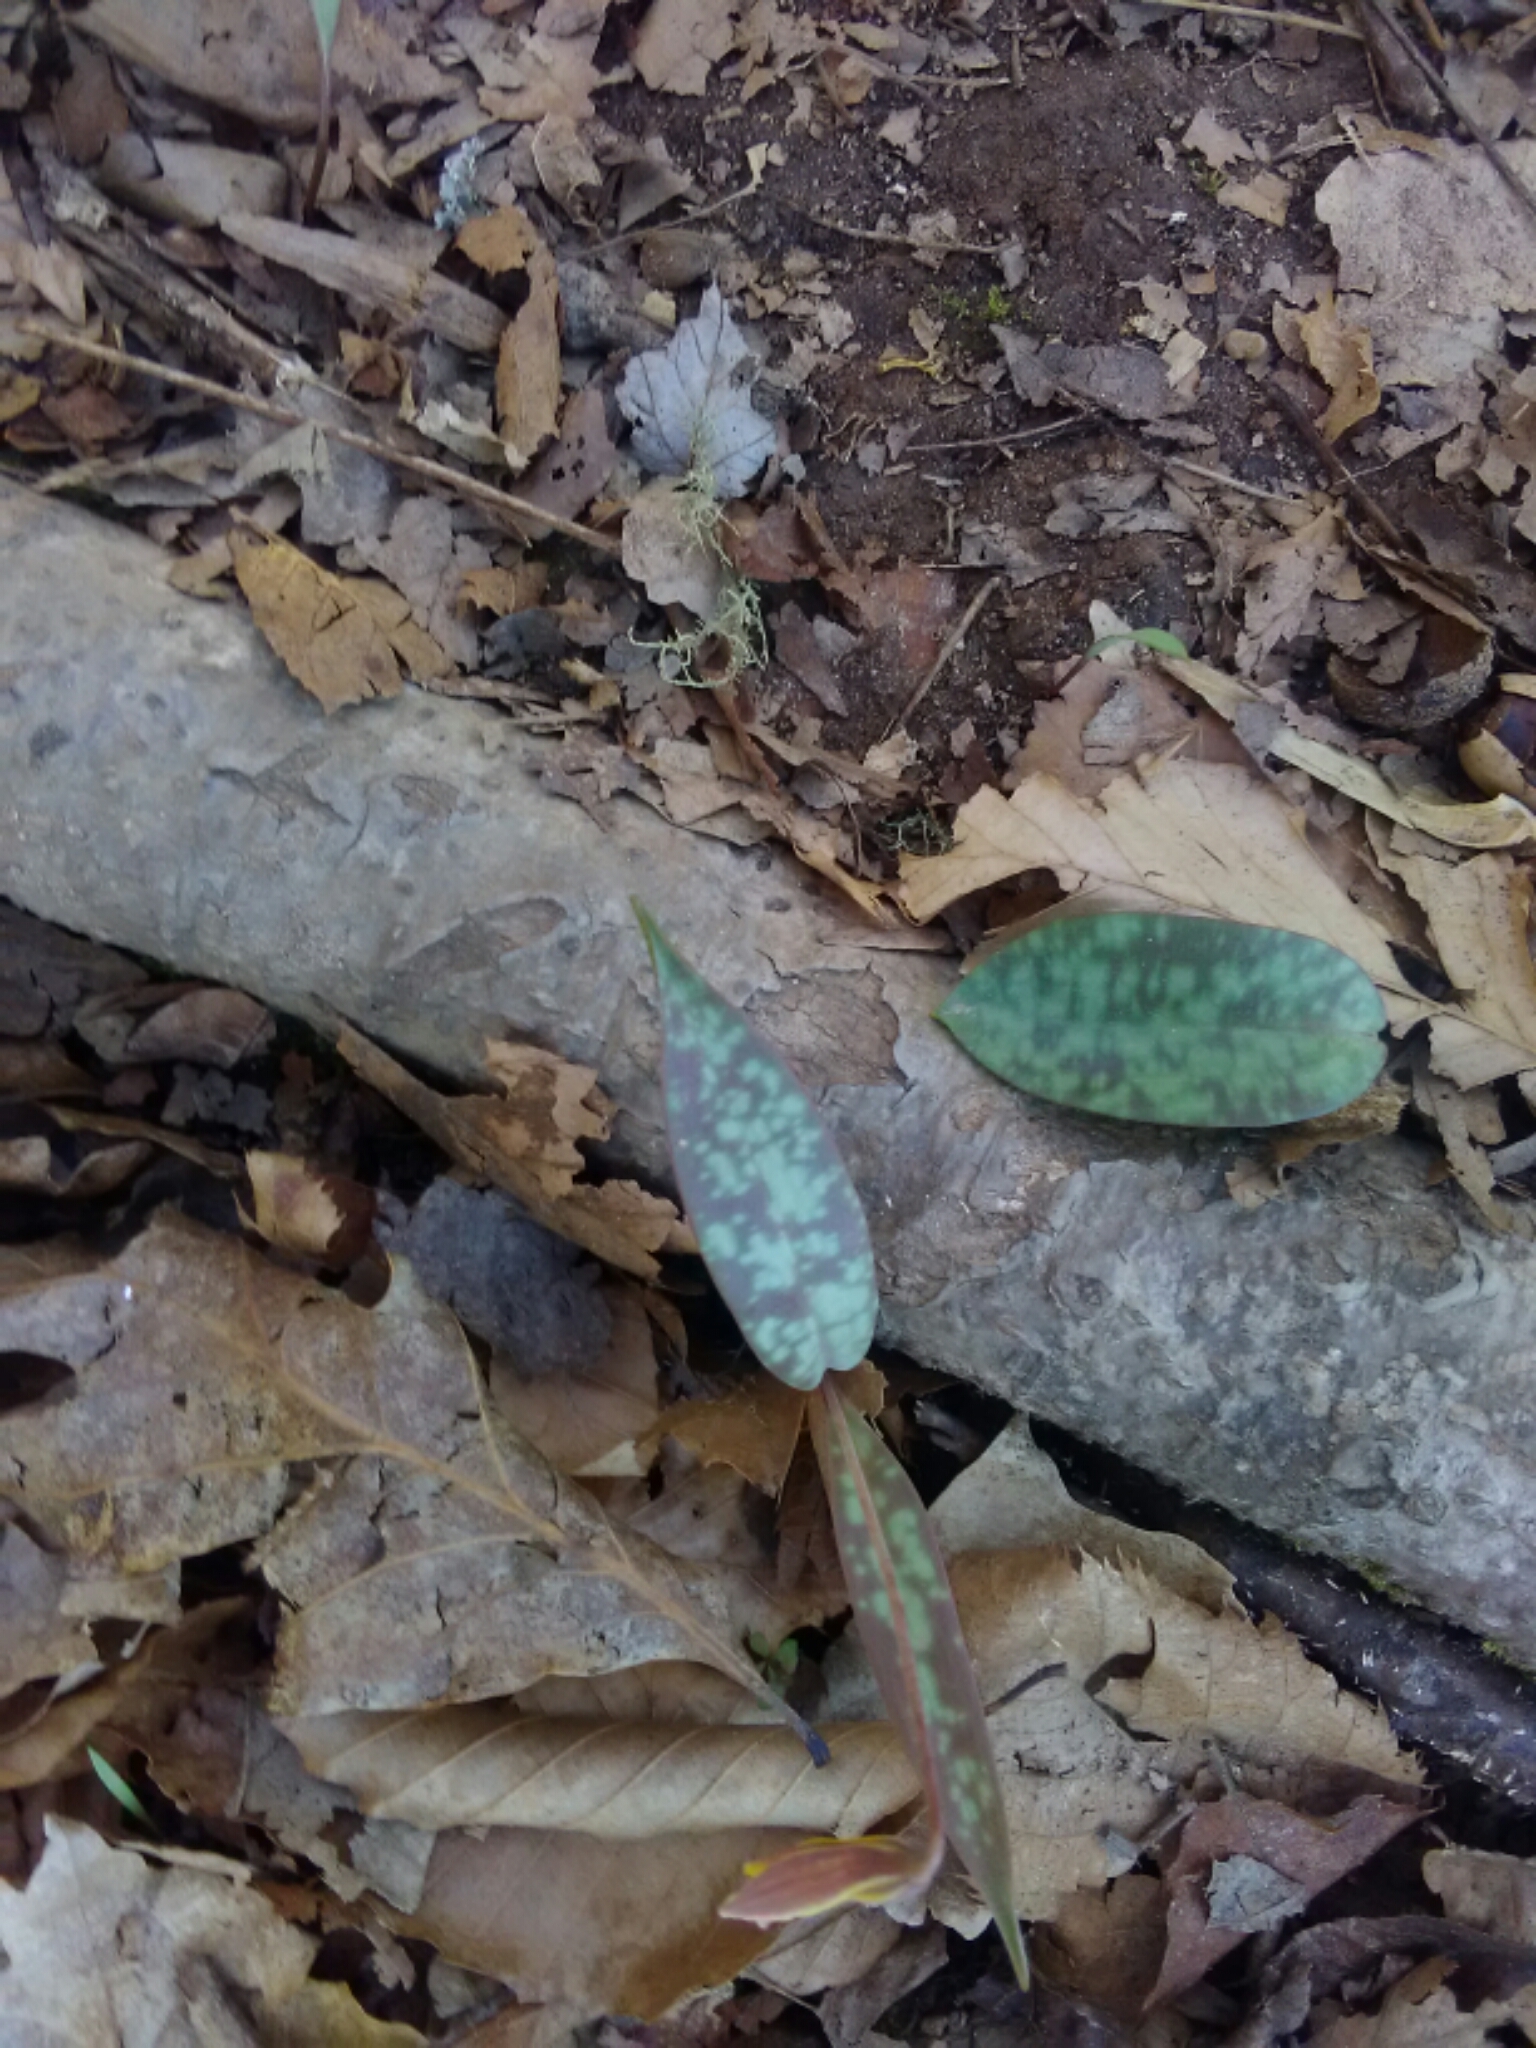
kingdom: Plantae
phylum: Tracheophyta
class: Liliopsida
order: Liliales
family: Liliaceae
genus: Erythronium
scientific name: Erythronium umbilicatum
